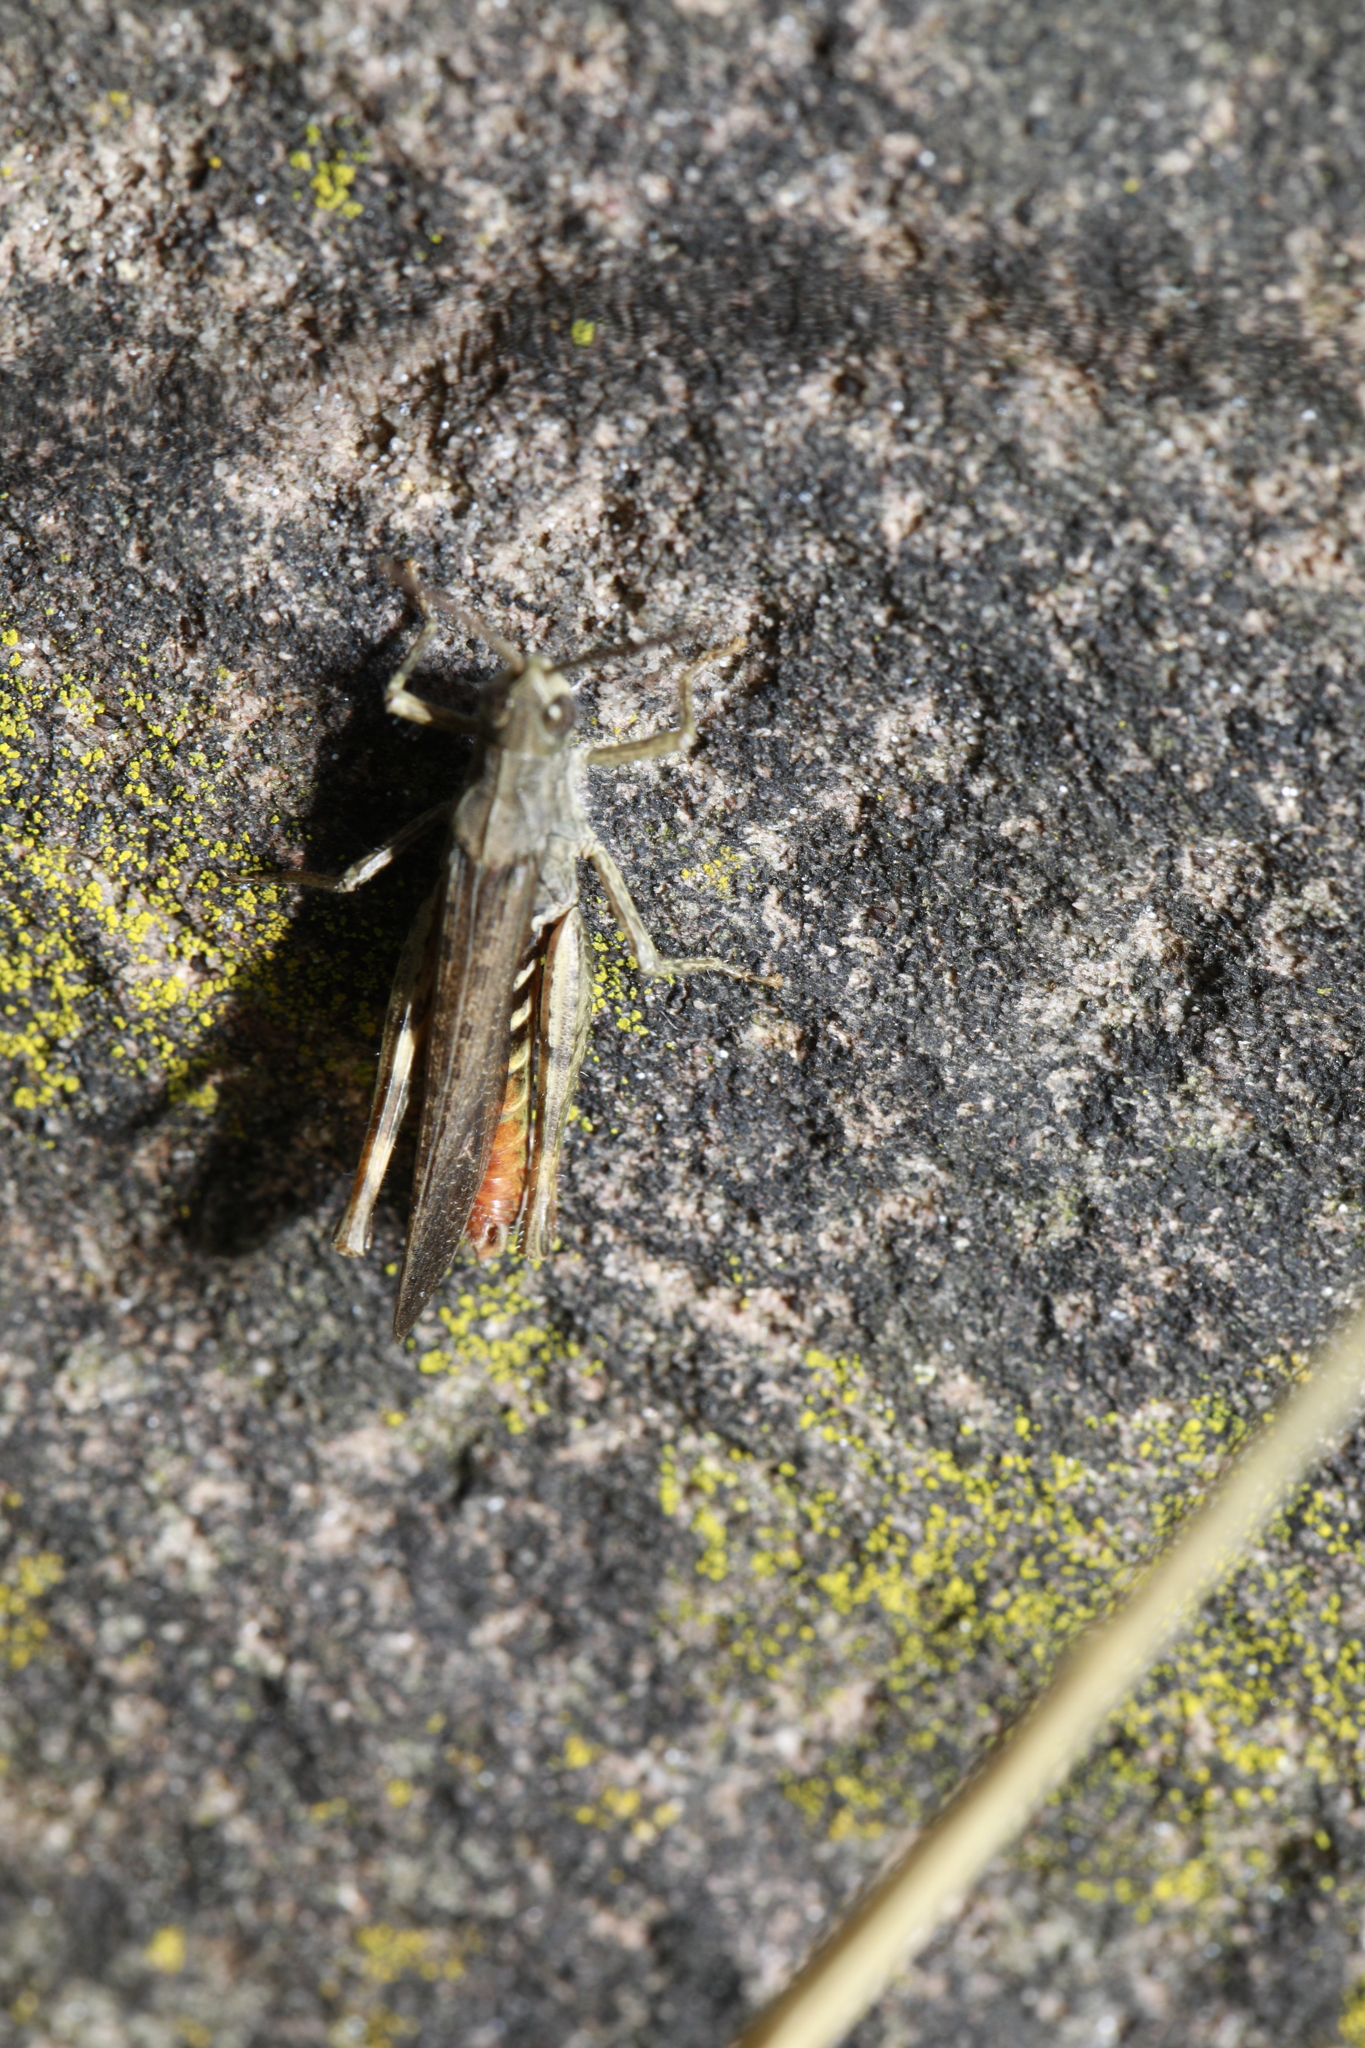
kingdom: Animalia
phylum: Arthropoda
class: Insecta
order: Orthoptera
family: Acrididae
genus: Chorthippus
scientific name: Chorthippus brunneus
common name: Field grasshopper
